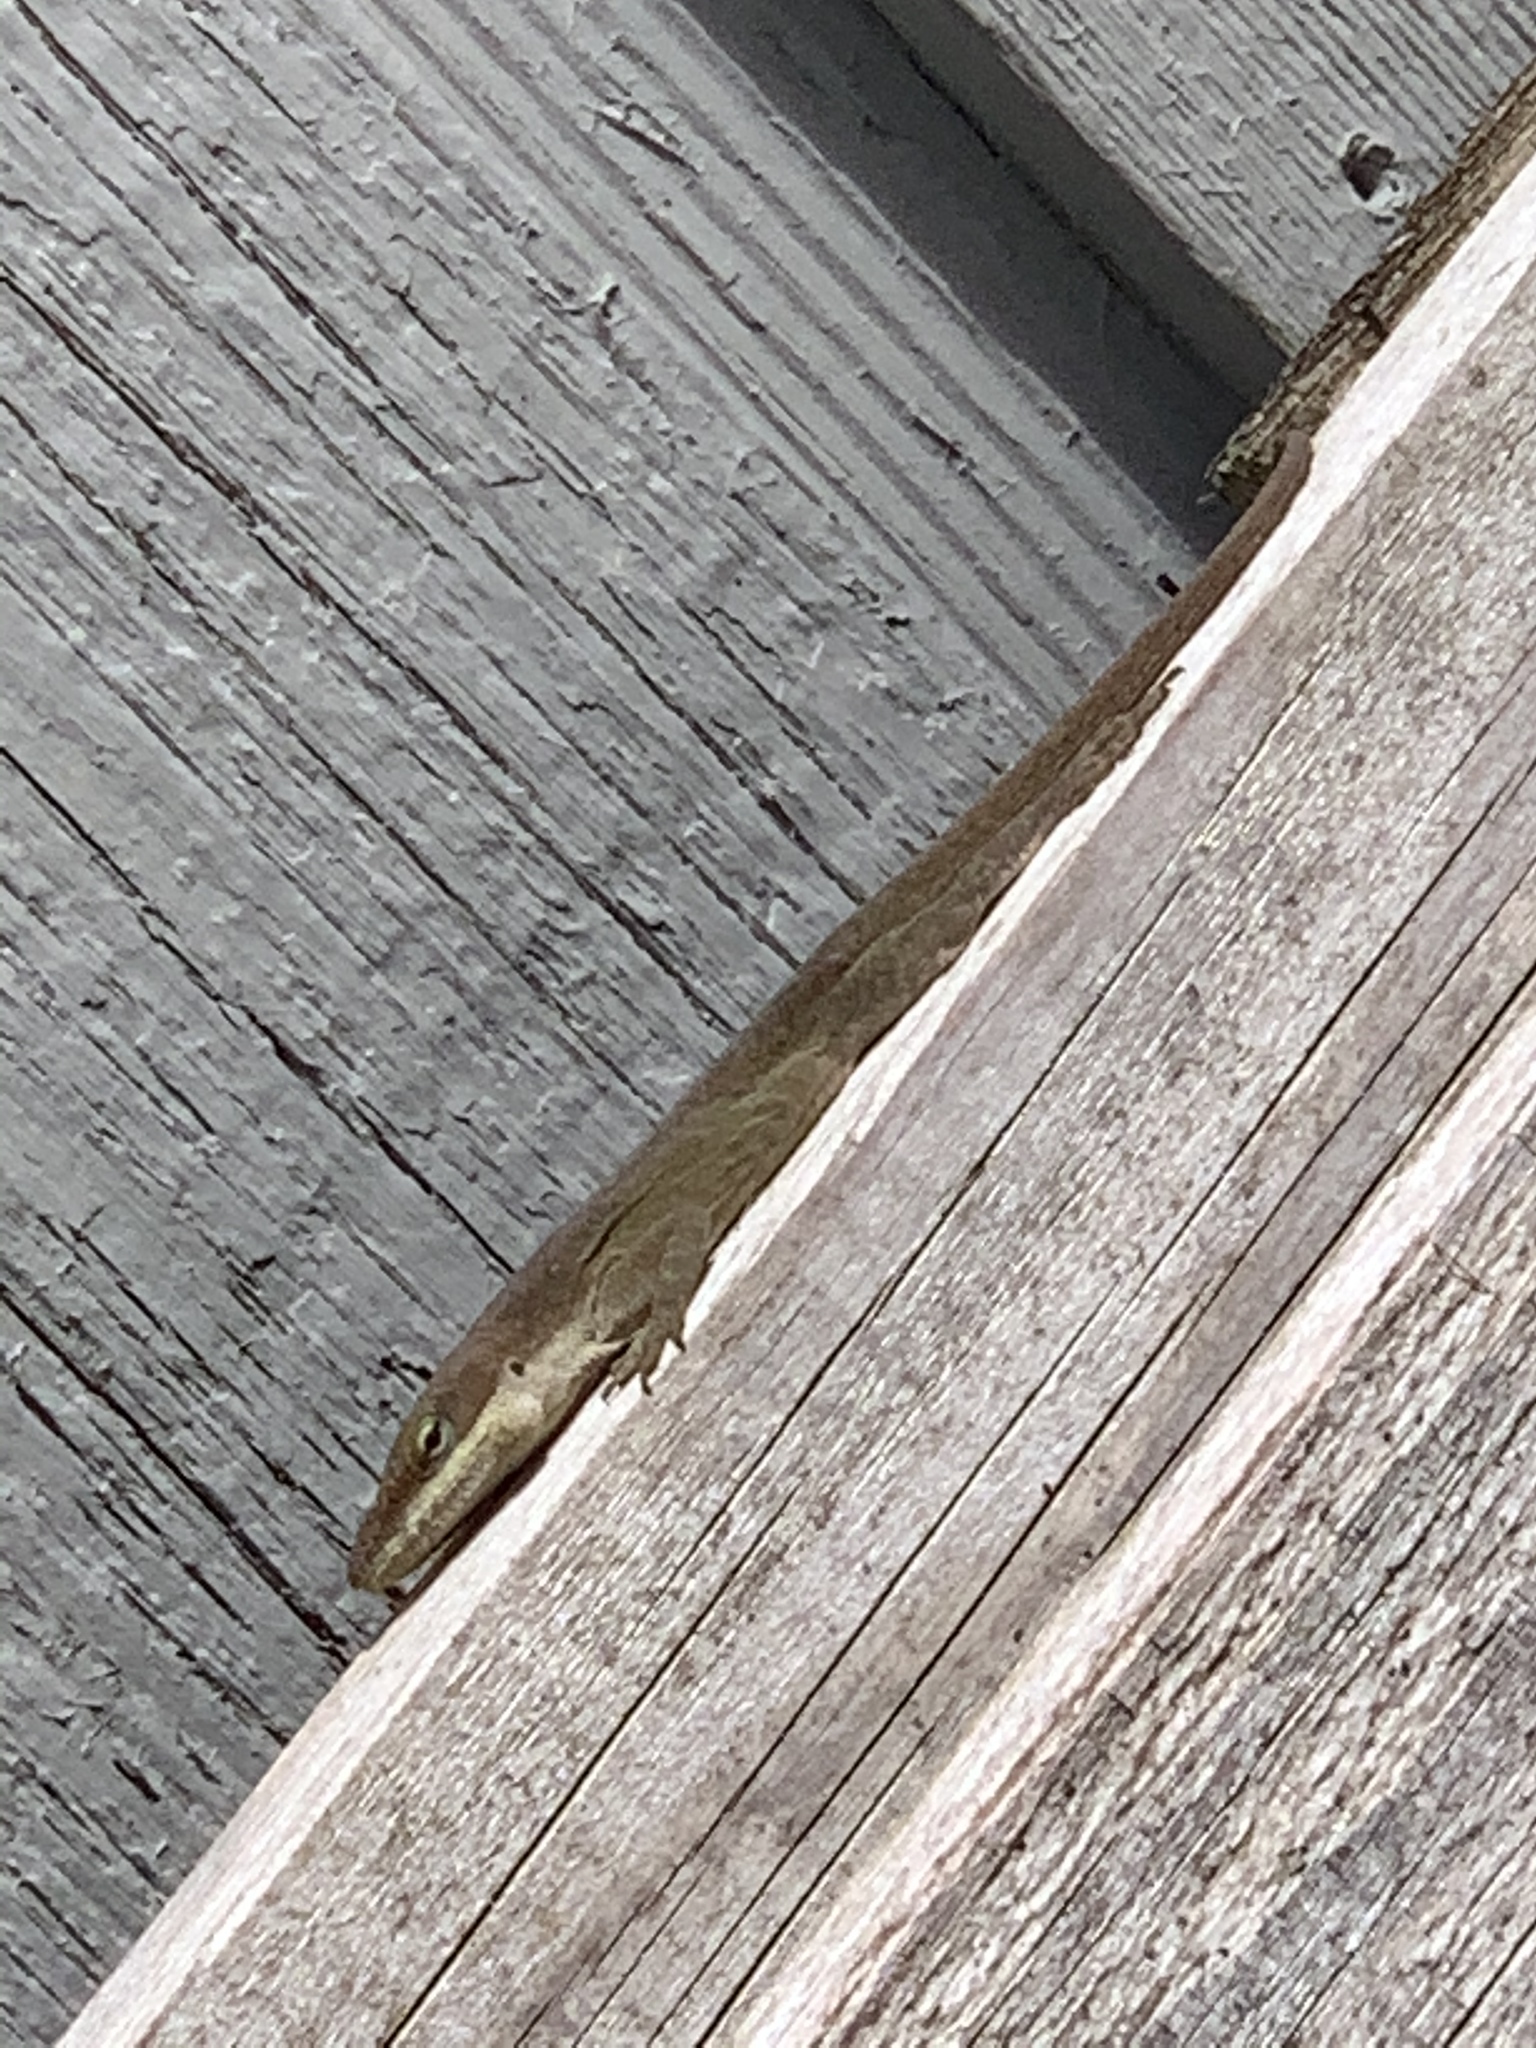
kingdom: Animalia
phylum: Chordata
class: Squamata
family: Dactyloidae
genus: Anolis
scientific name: Anolis carolinensis
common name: Green anole
